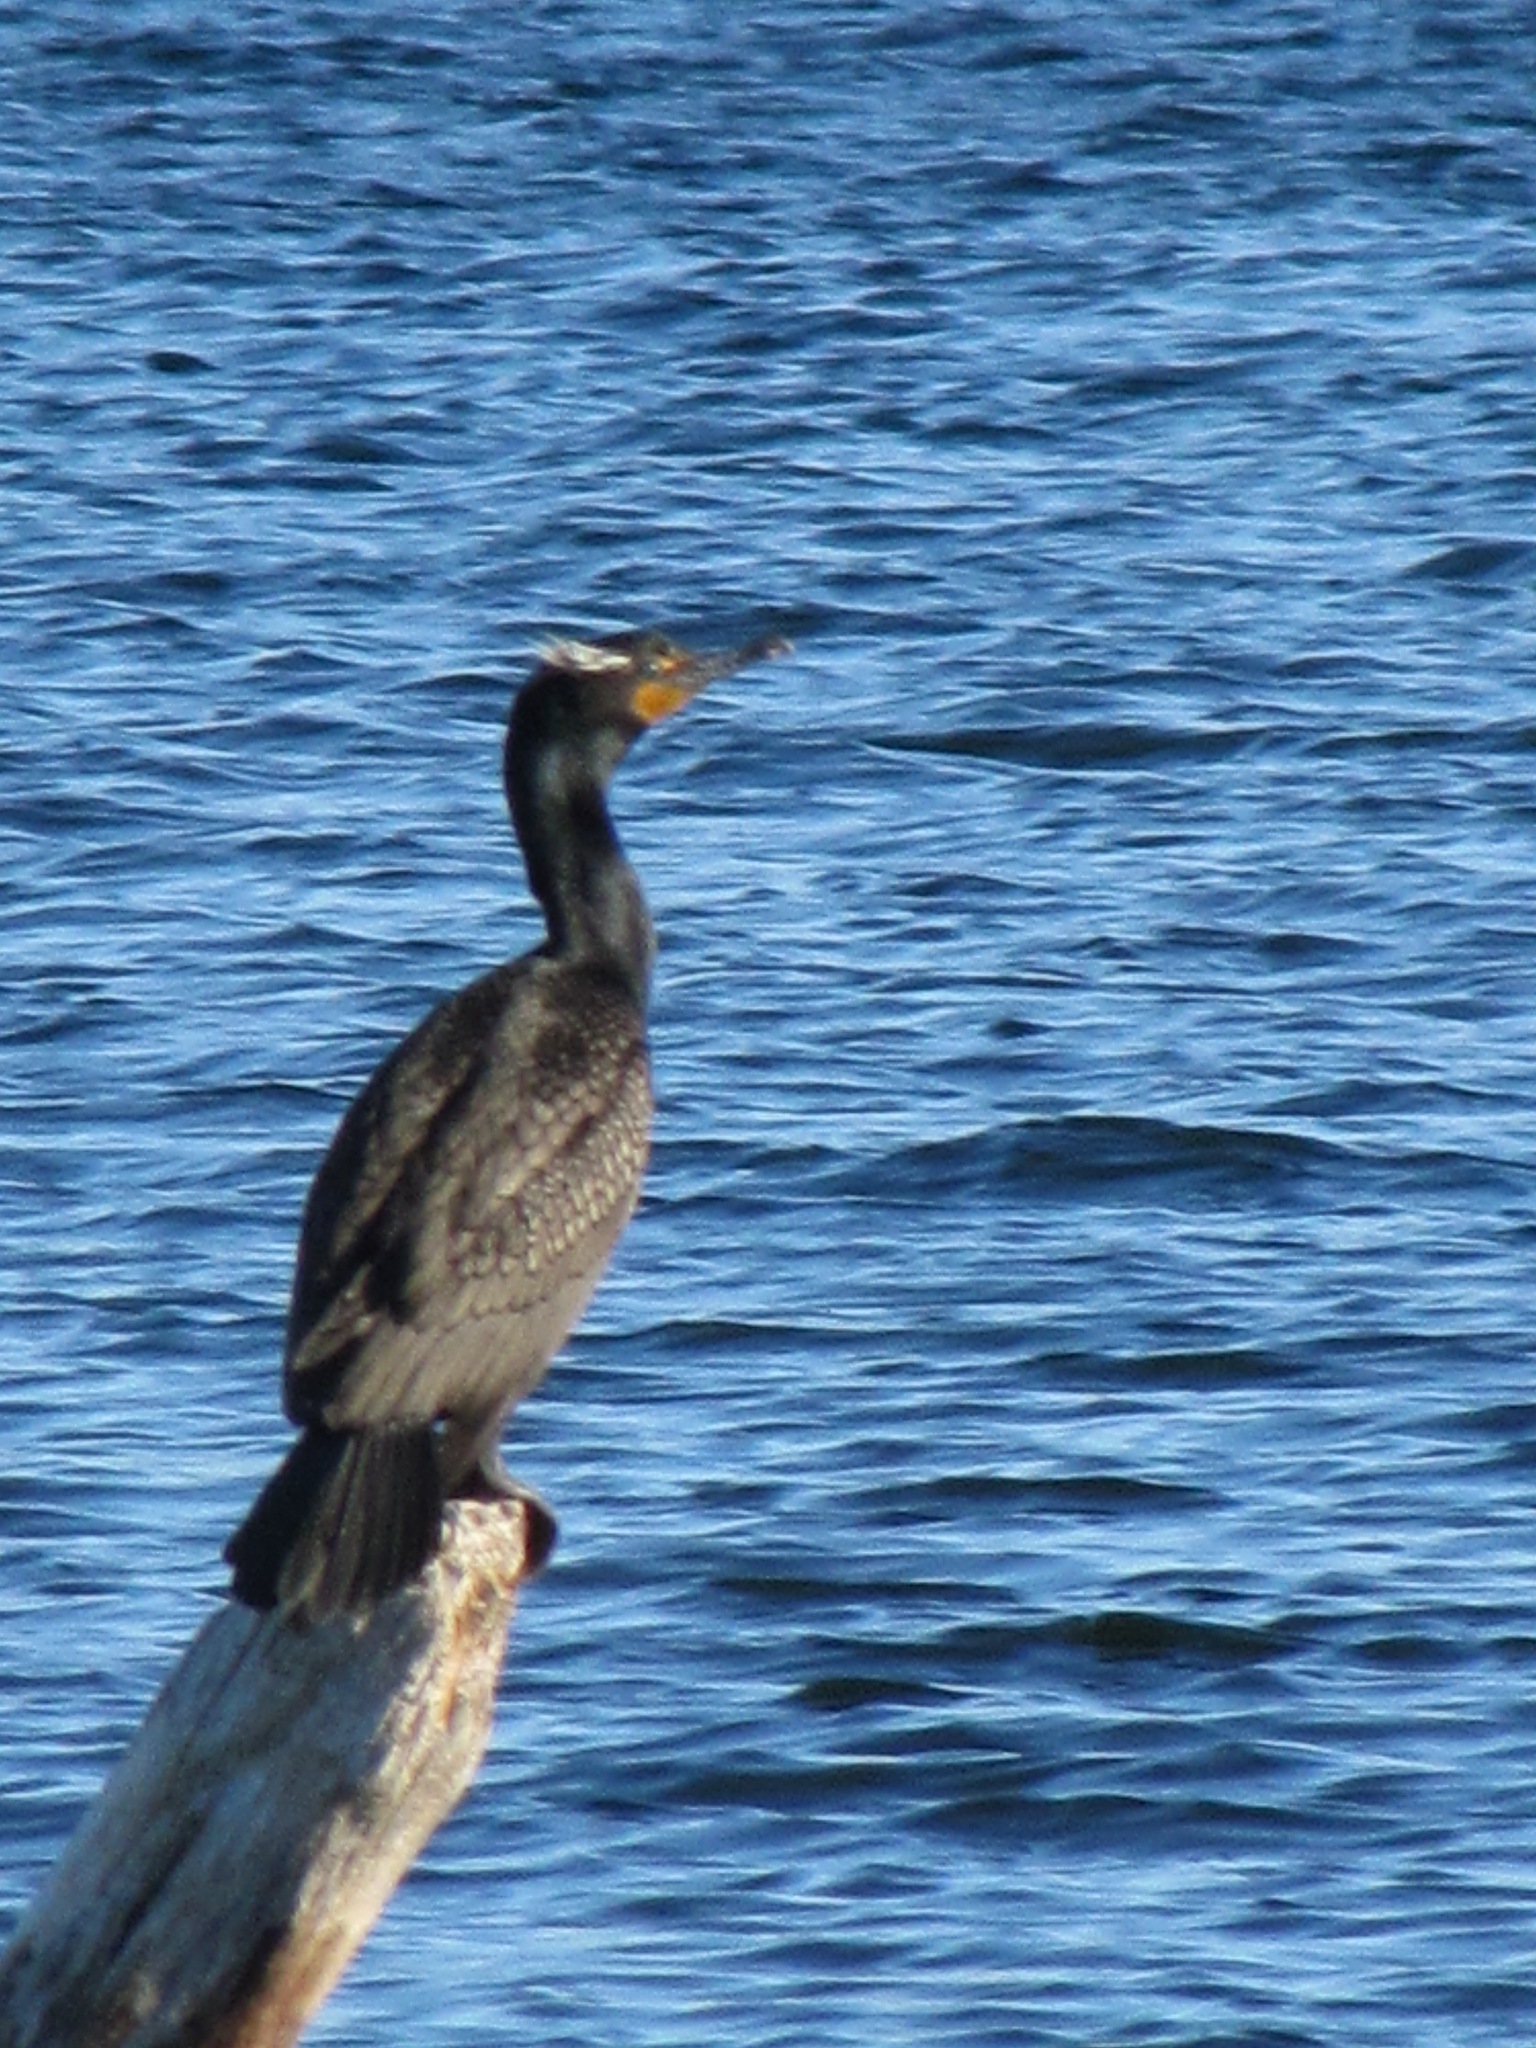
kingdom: Animalia
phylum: Chordata
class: Aves
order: Suliformes
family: Phalacrocoracidae
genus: Phalacrocorax
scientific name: Phalacrocorax auritus
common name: Double-crested cormorant
